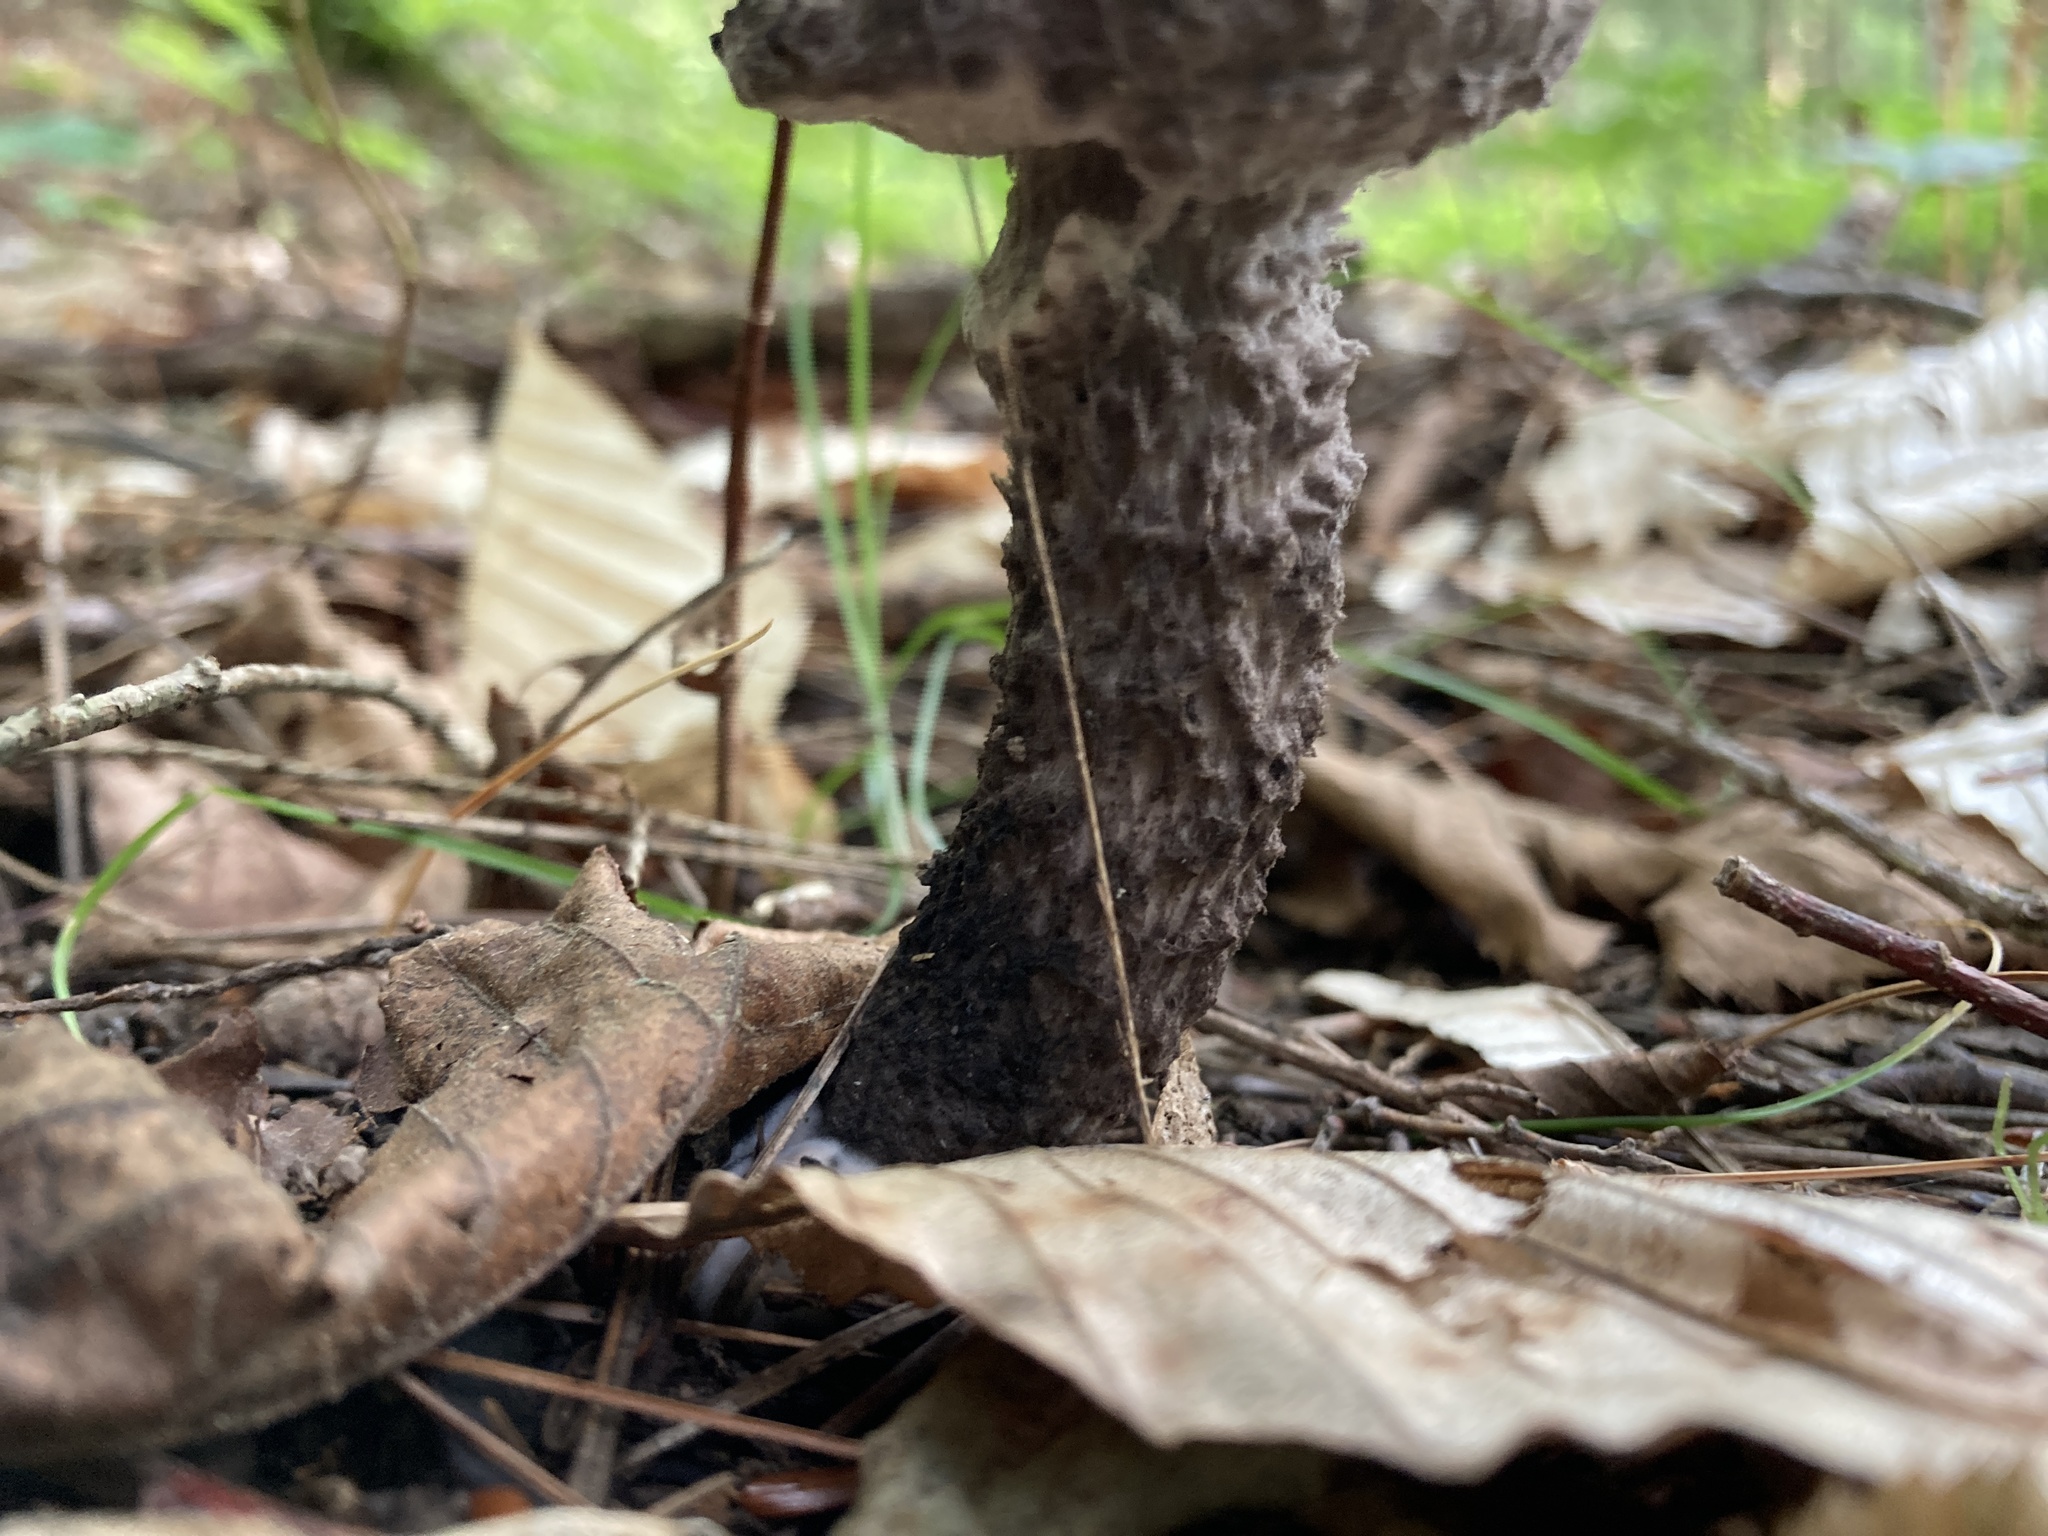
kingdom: Fungi
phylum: Basidiomycota
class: Agaricomycetes
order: Boletales
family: Boletaceae
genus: Strobilomyces
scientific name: Strobilomyces strobilaceus
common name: Old man of the woods
